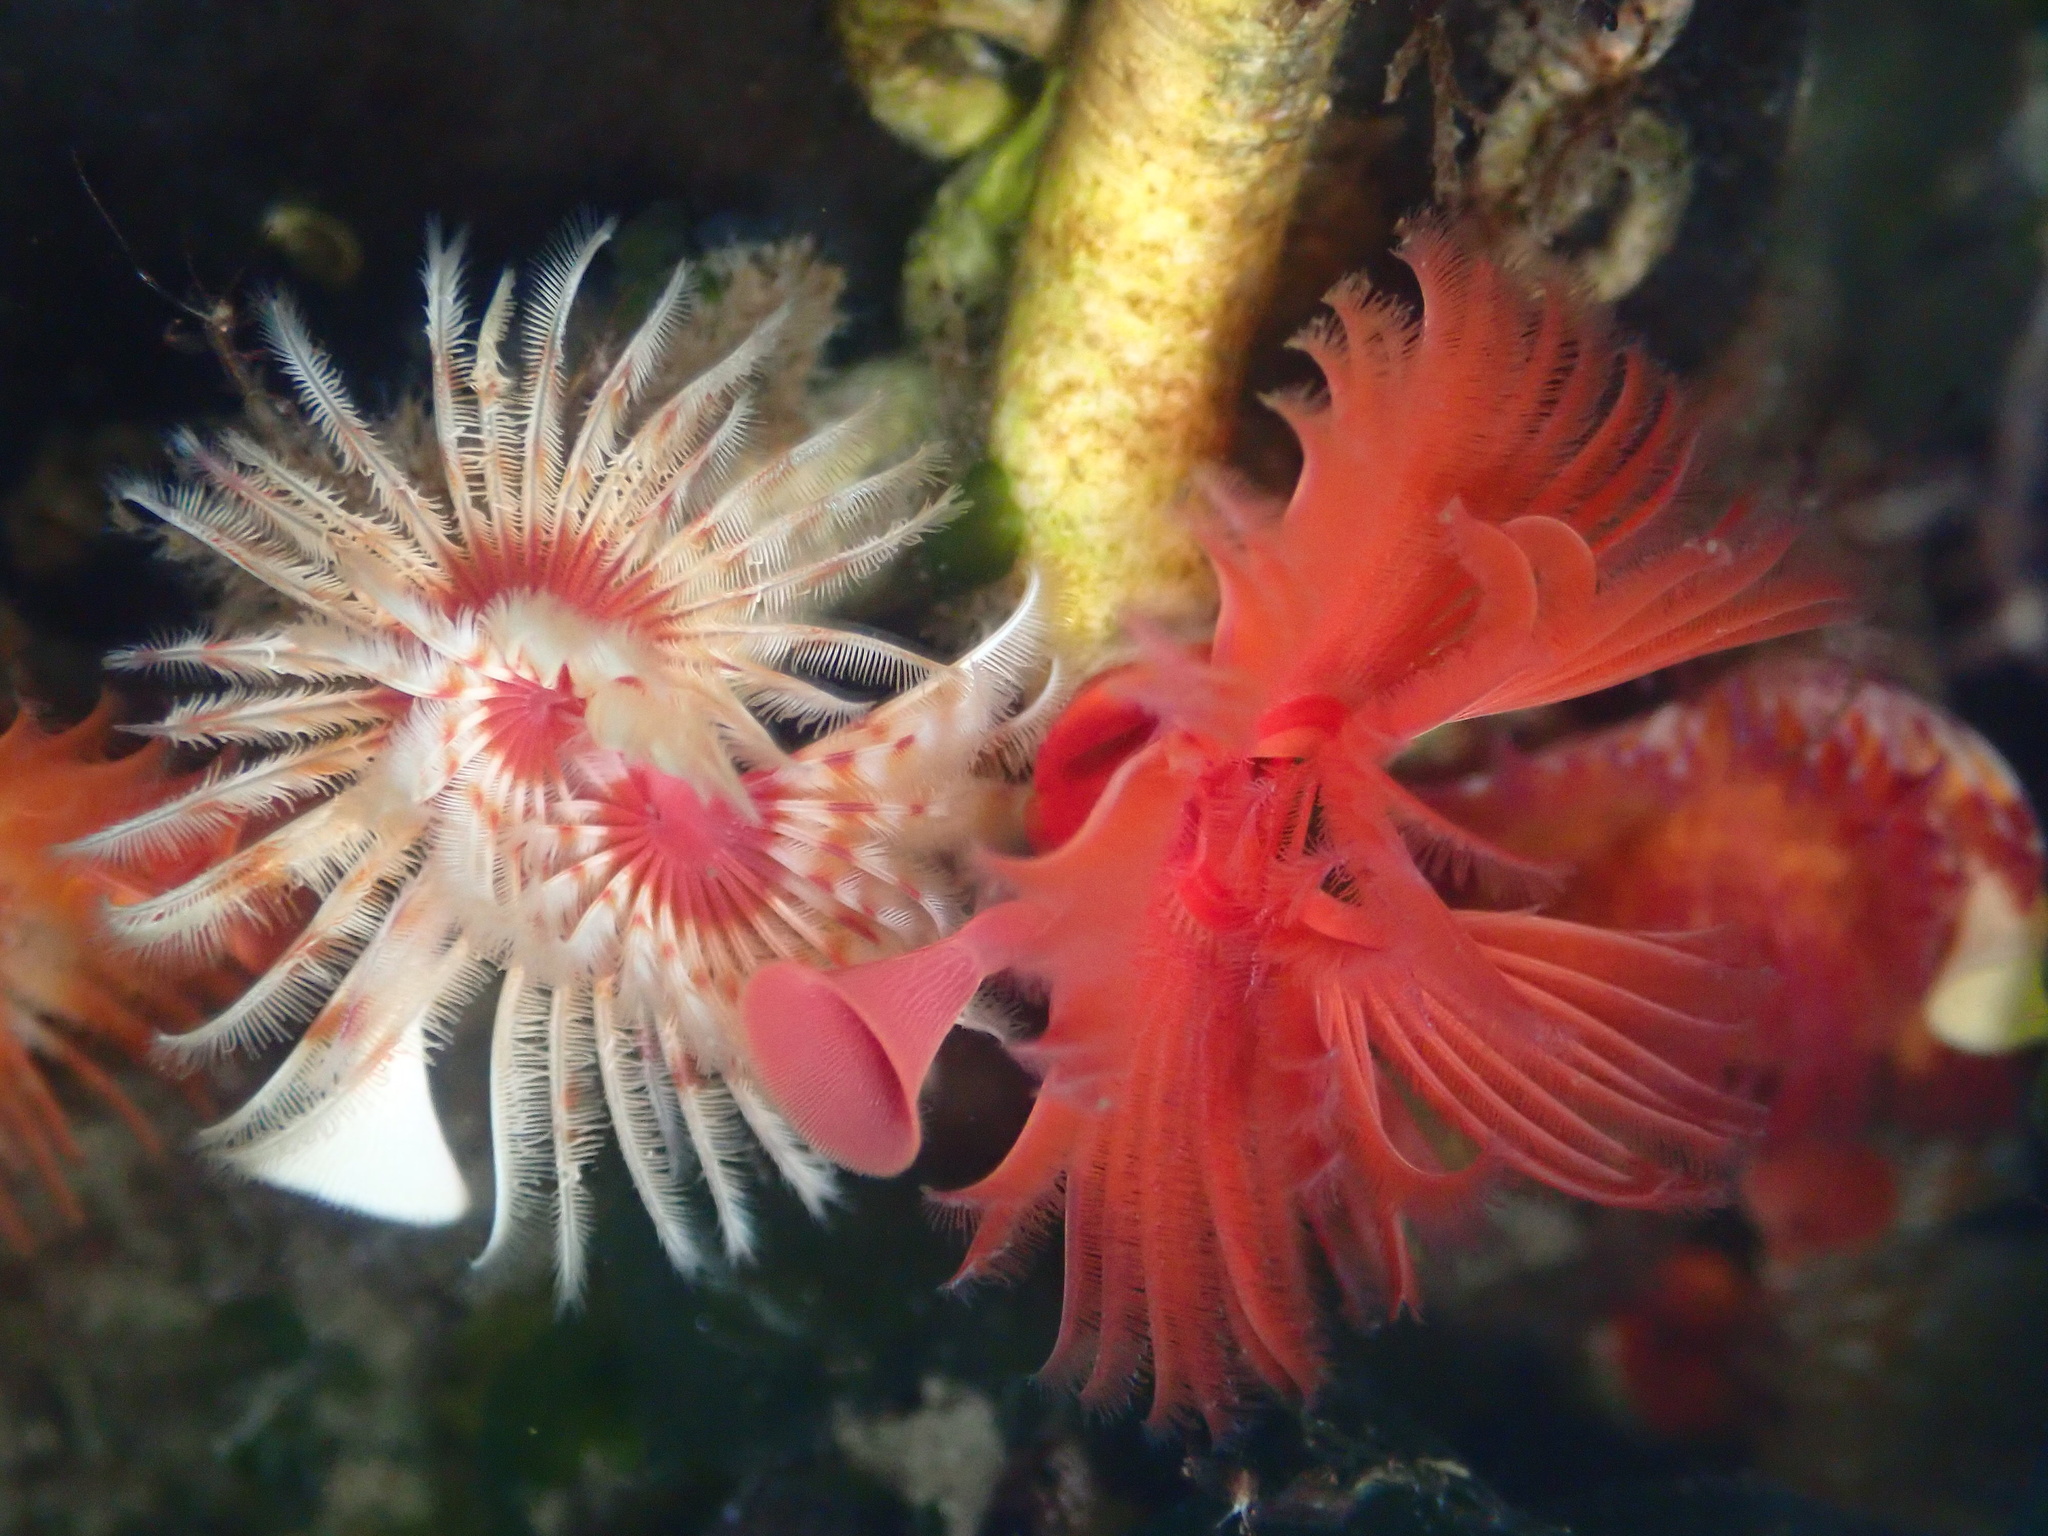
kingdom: Animalia
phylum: Annelida
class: Polychaeta
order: Sabellida
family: Serpulidae
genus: Serpula
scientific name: Serpula columbiana
